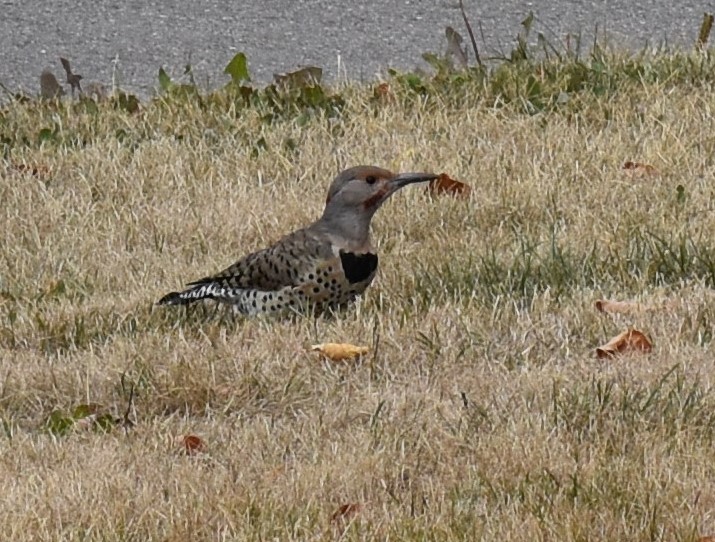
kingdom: Animalia
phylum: Chordata
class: Aves
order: Piciformes
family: Picidae
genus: Colaptes
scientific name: Colaptes auratus
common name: Northern flicker
